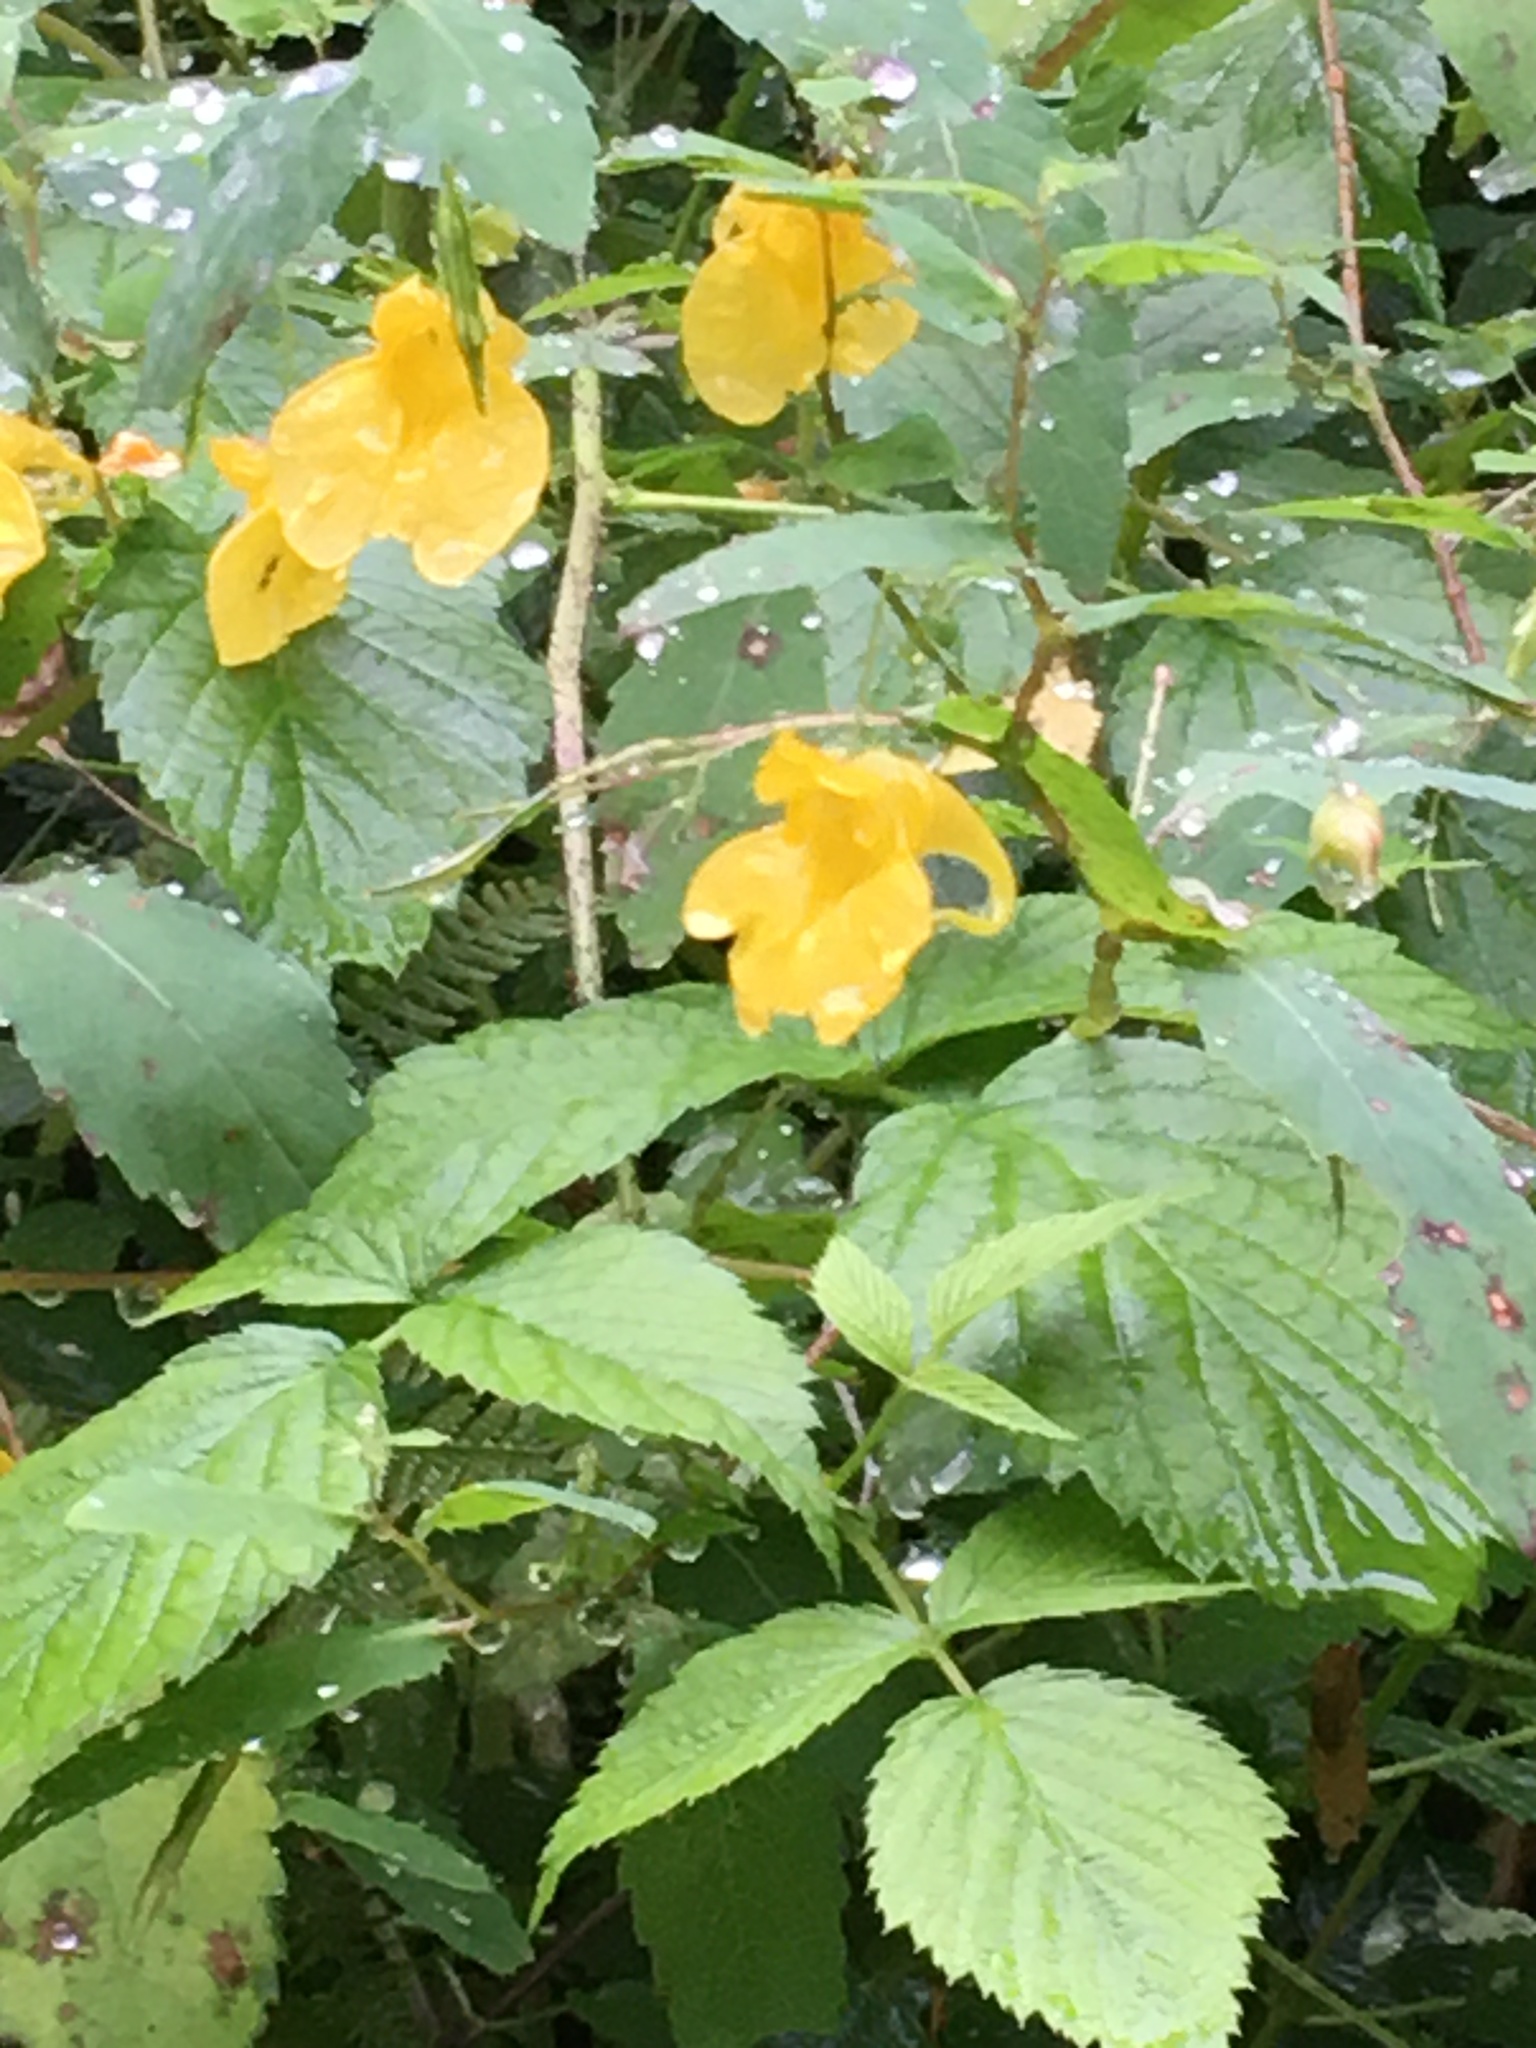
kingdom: Plantae
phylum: Tracheophyta
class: Magnoliopsida
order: Ericales
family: Balsaminaceae
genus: Impatiens
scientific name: Impatiens noli-tangere
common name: Touch-me-not balsam
